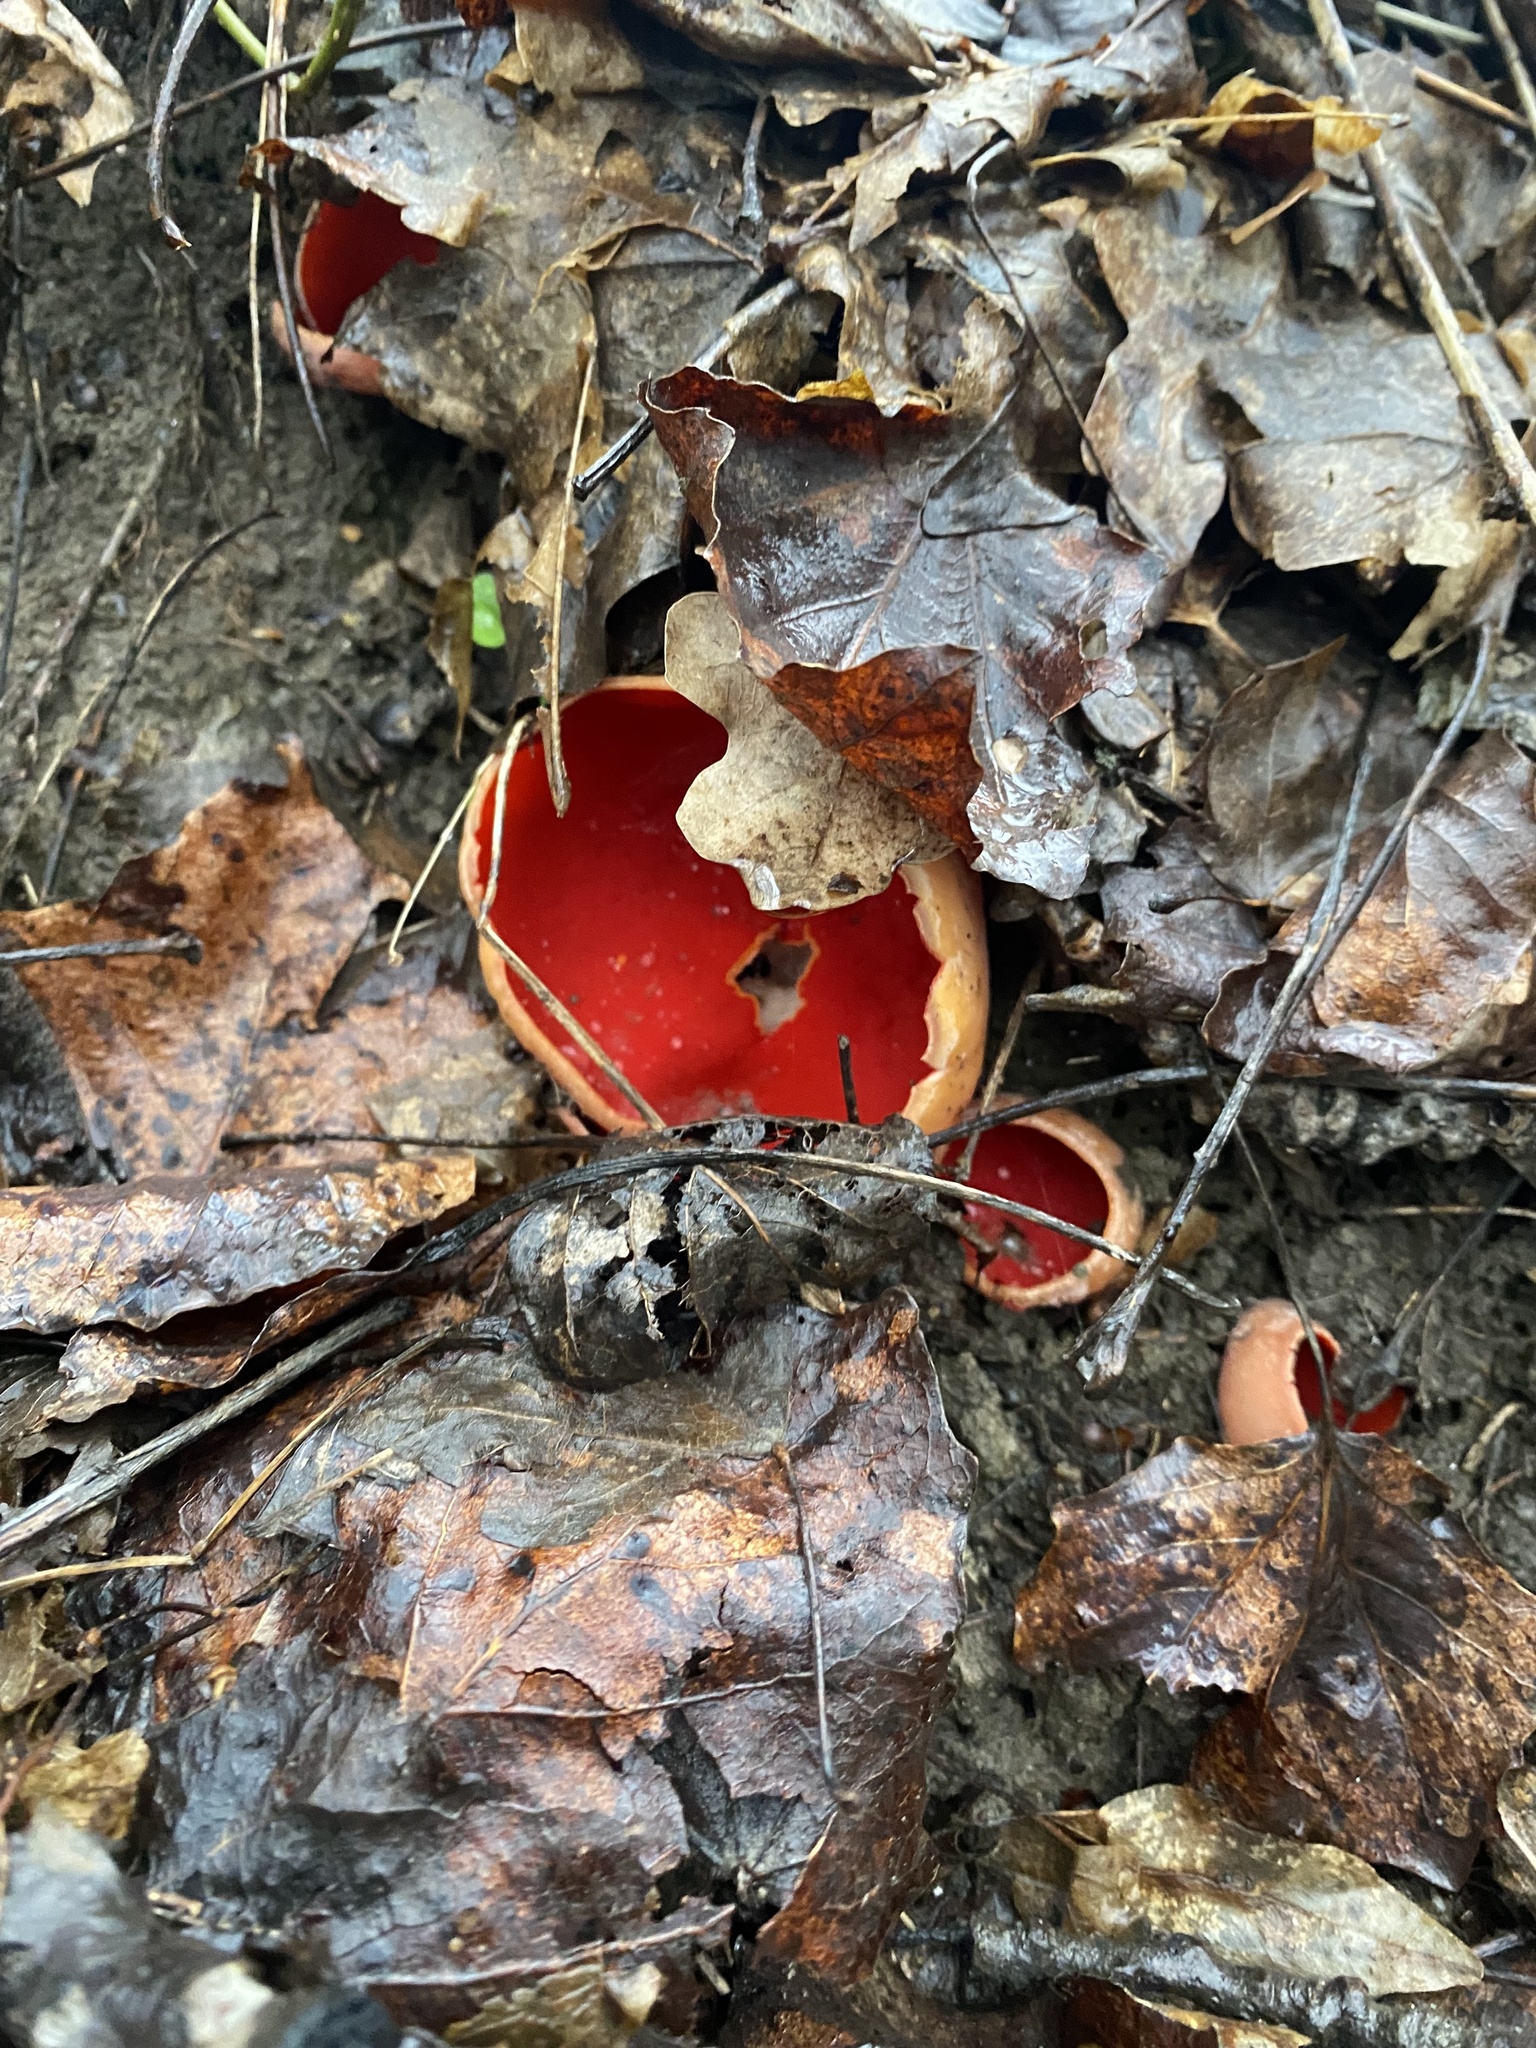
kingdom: Fungi
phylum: Ascomycota
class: Pezizomycetes
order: Pezizales
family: Sarcoscyphaceae
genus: Sarcoscypha
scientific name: Sarcoscypha
